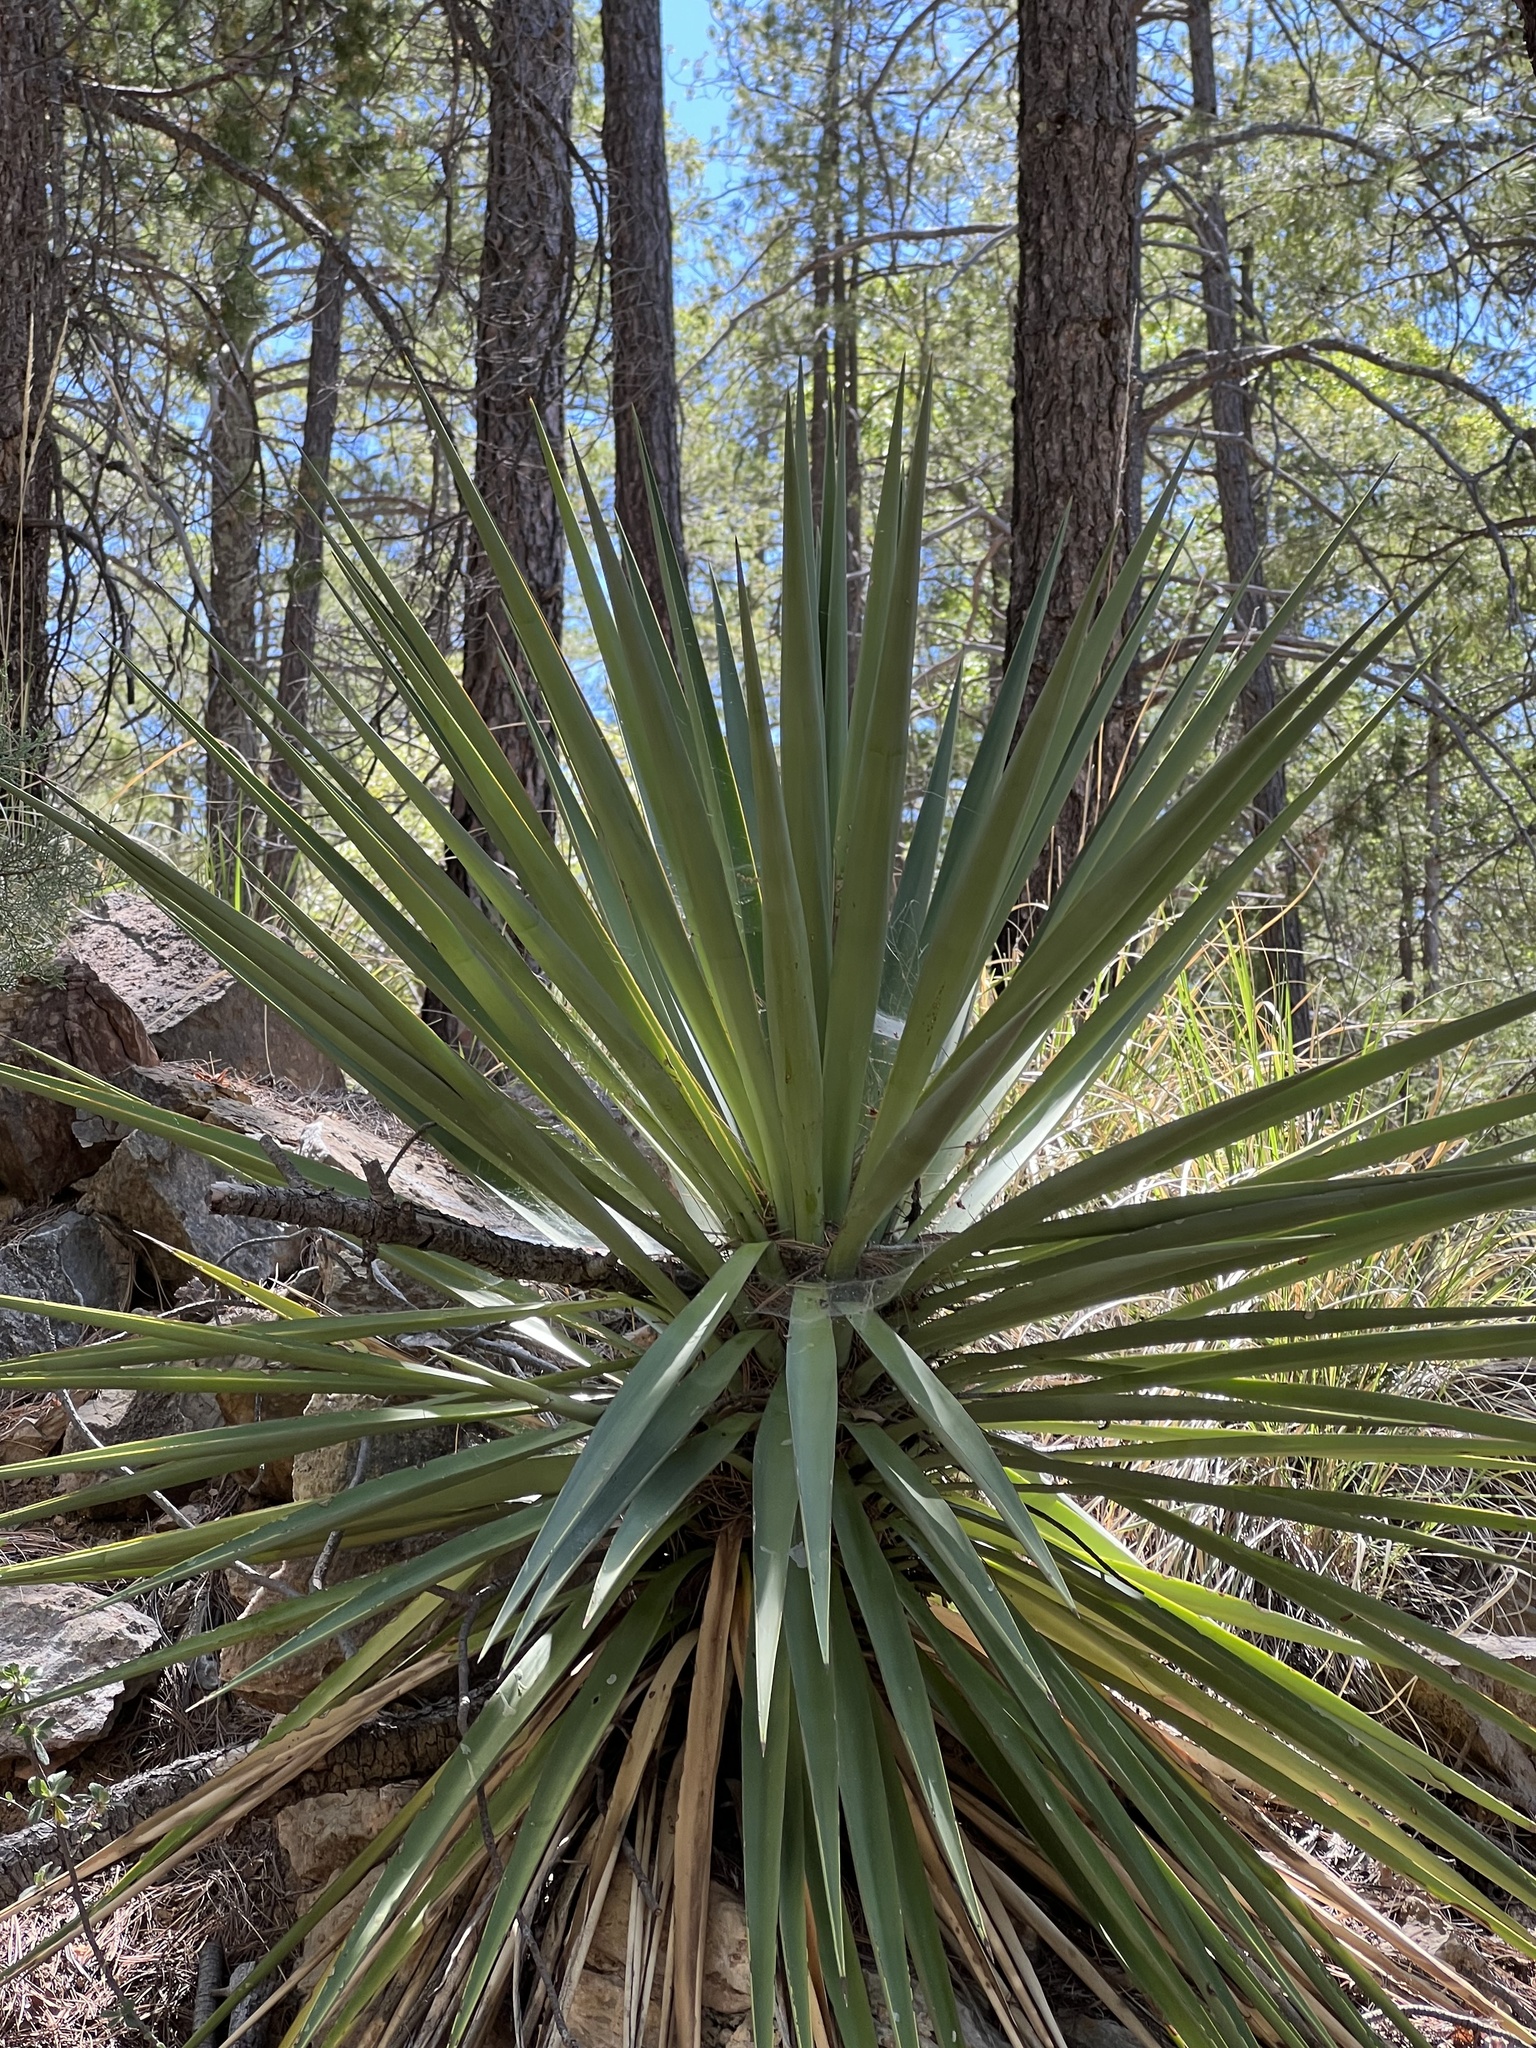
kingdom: Plantae
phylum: Tracheophyta
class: Liliopsida
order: Asparagales
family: Asparagaceae
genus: Yucca
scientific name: Yucca schottii
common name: Hoary yucca
